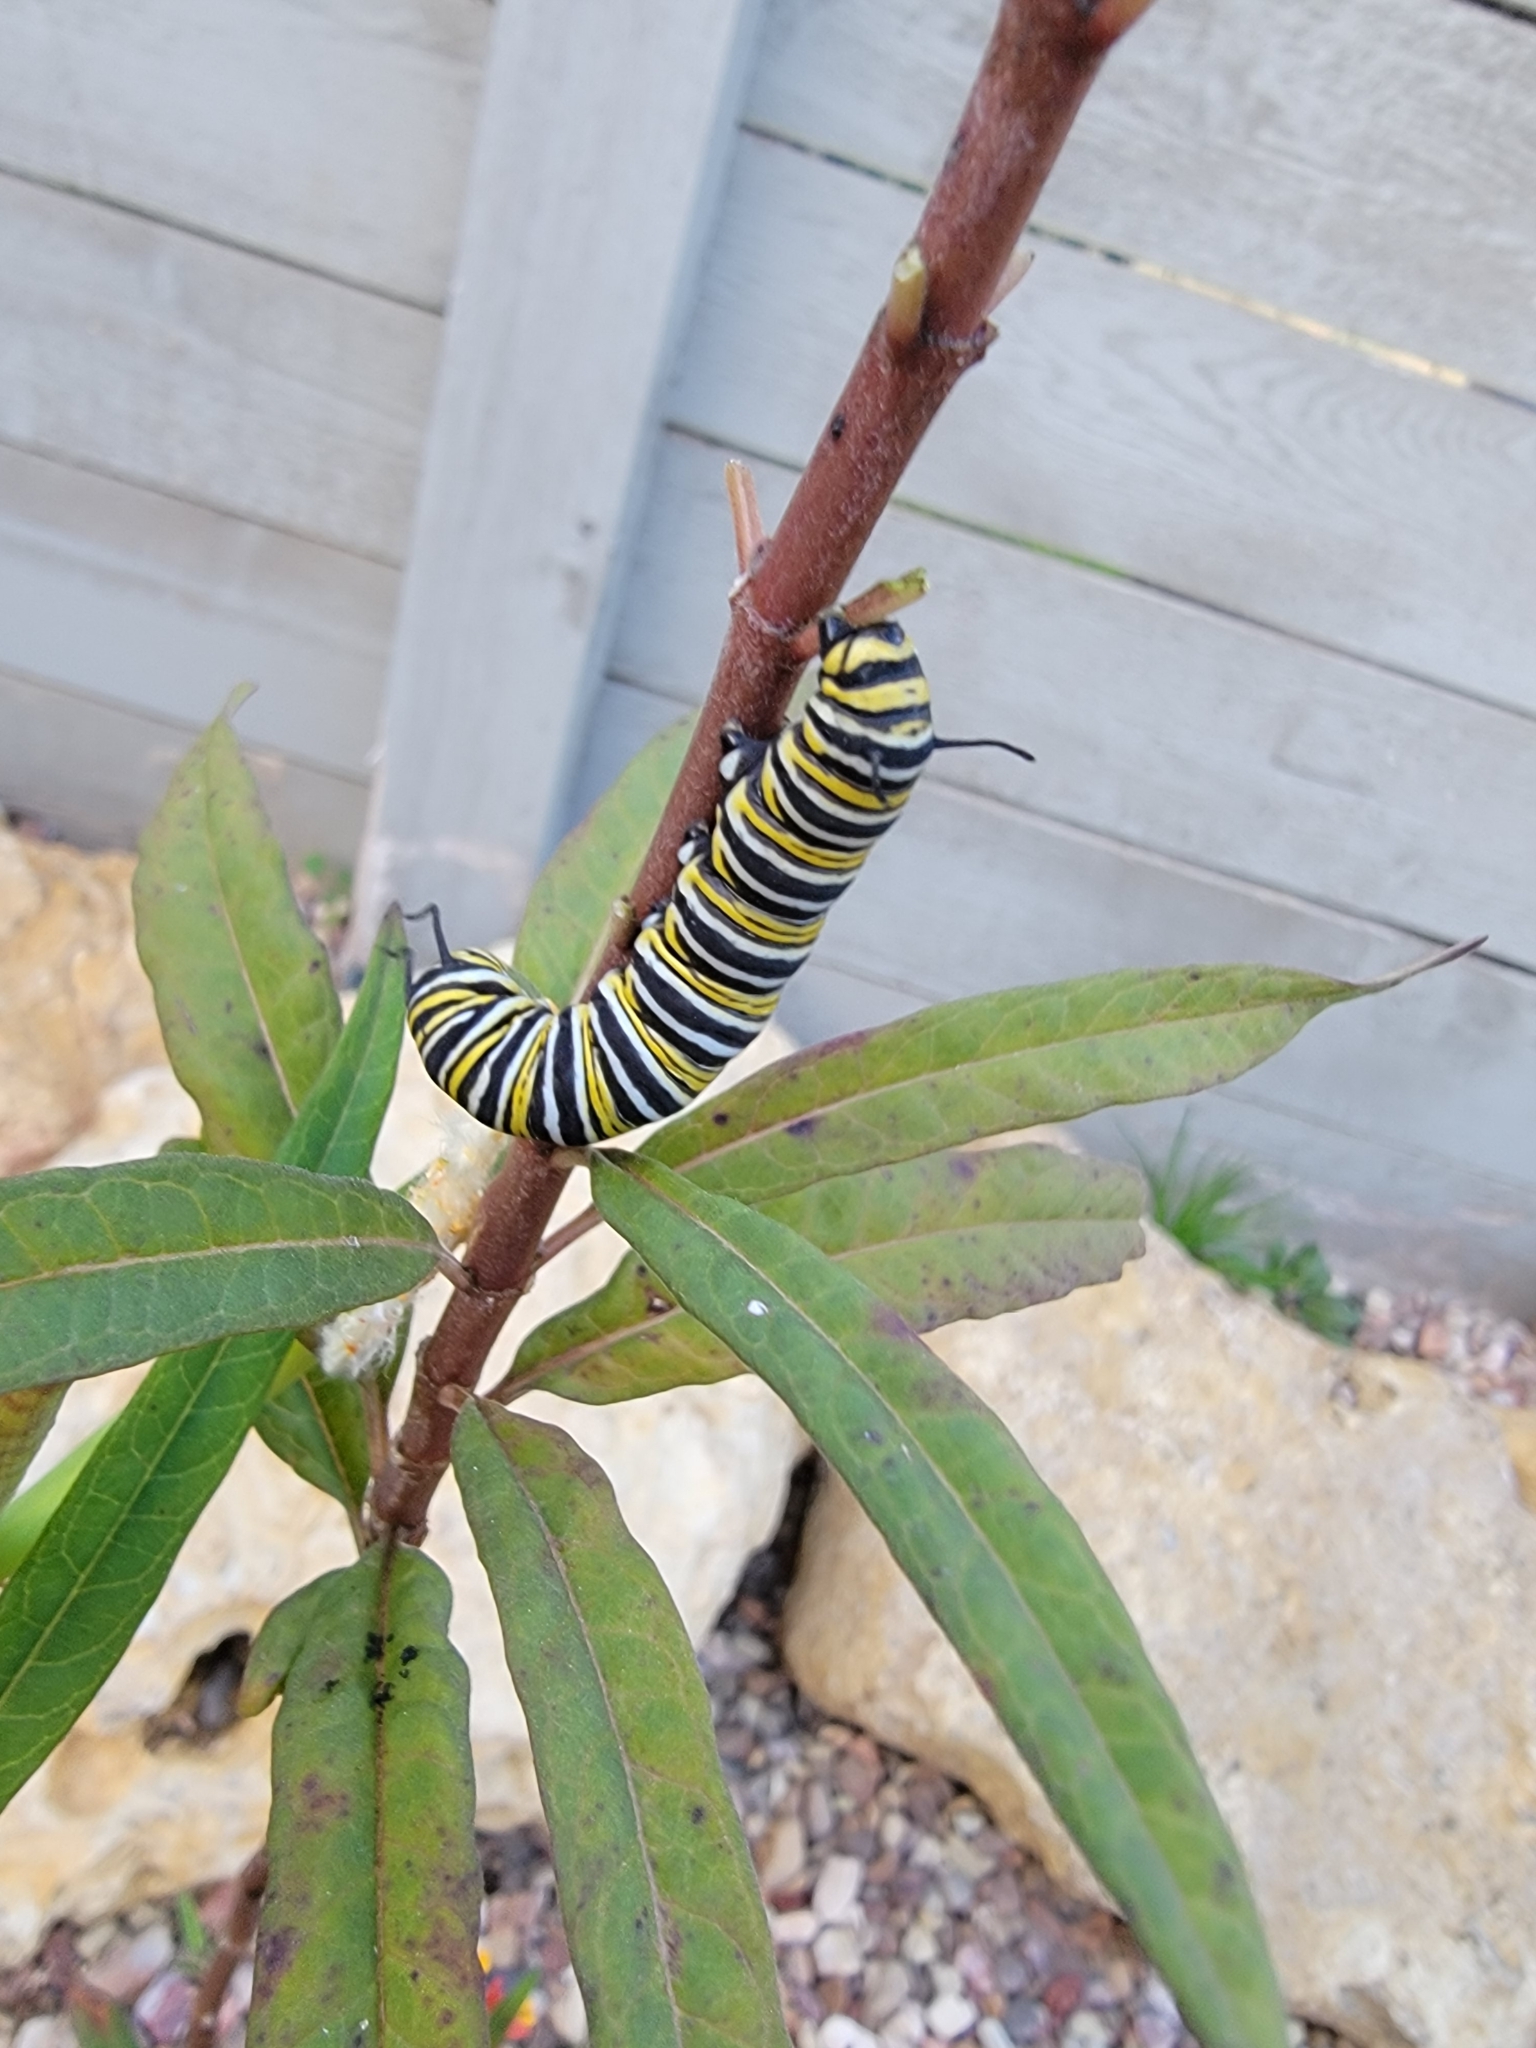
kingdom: Animalia
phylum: Arthropoda
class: Insecta
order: Lepidoptera
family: Nymphalidae
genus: Danaus
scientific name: Danaus plexippus
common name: Monarch
